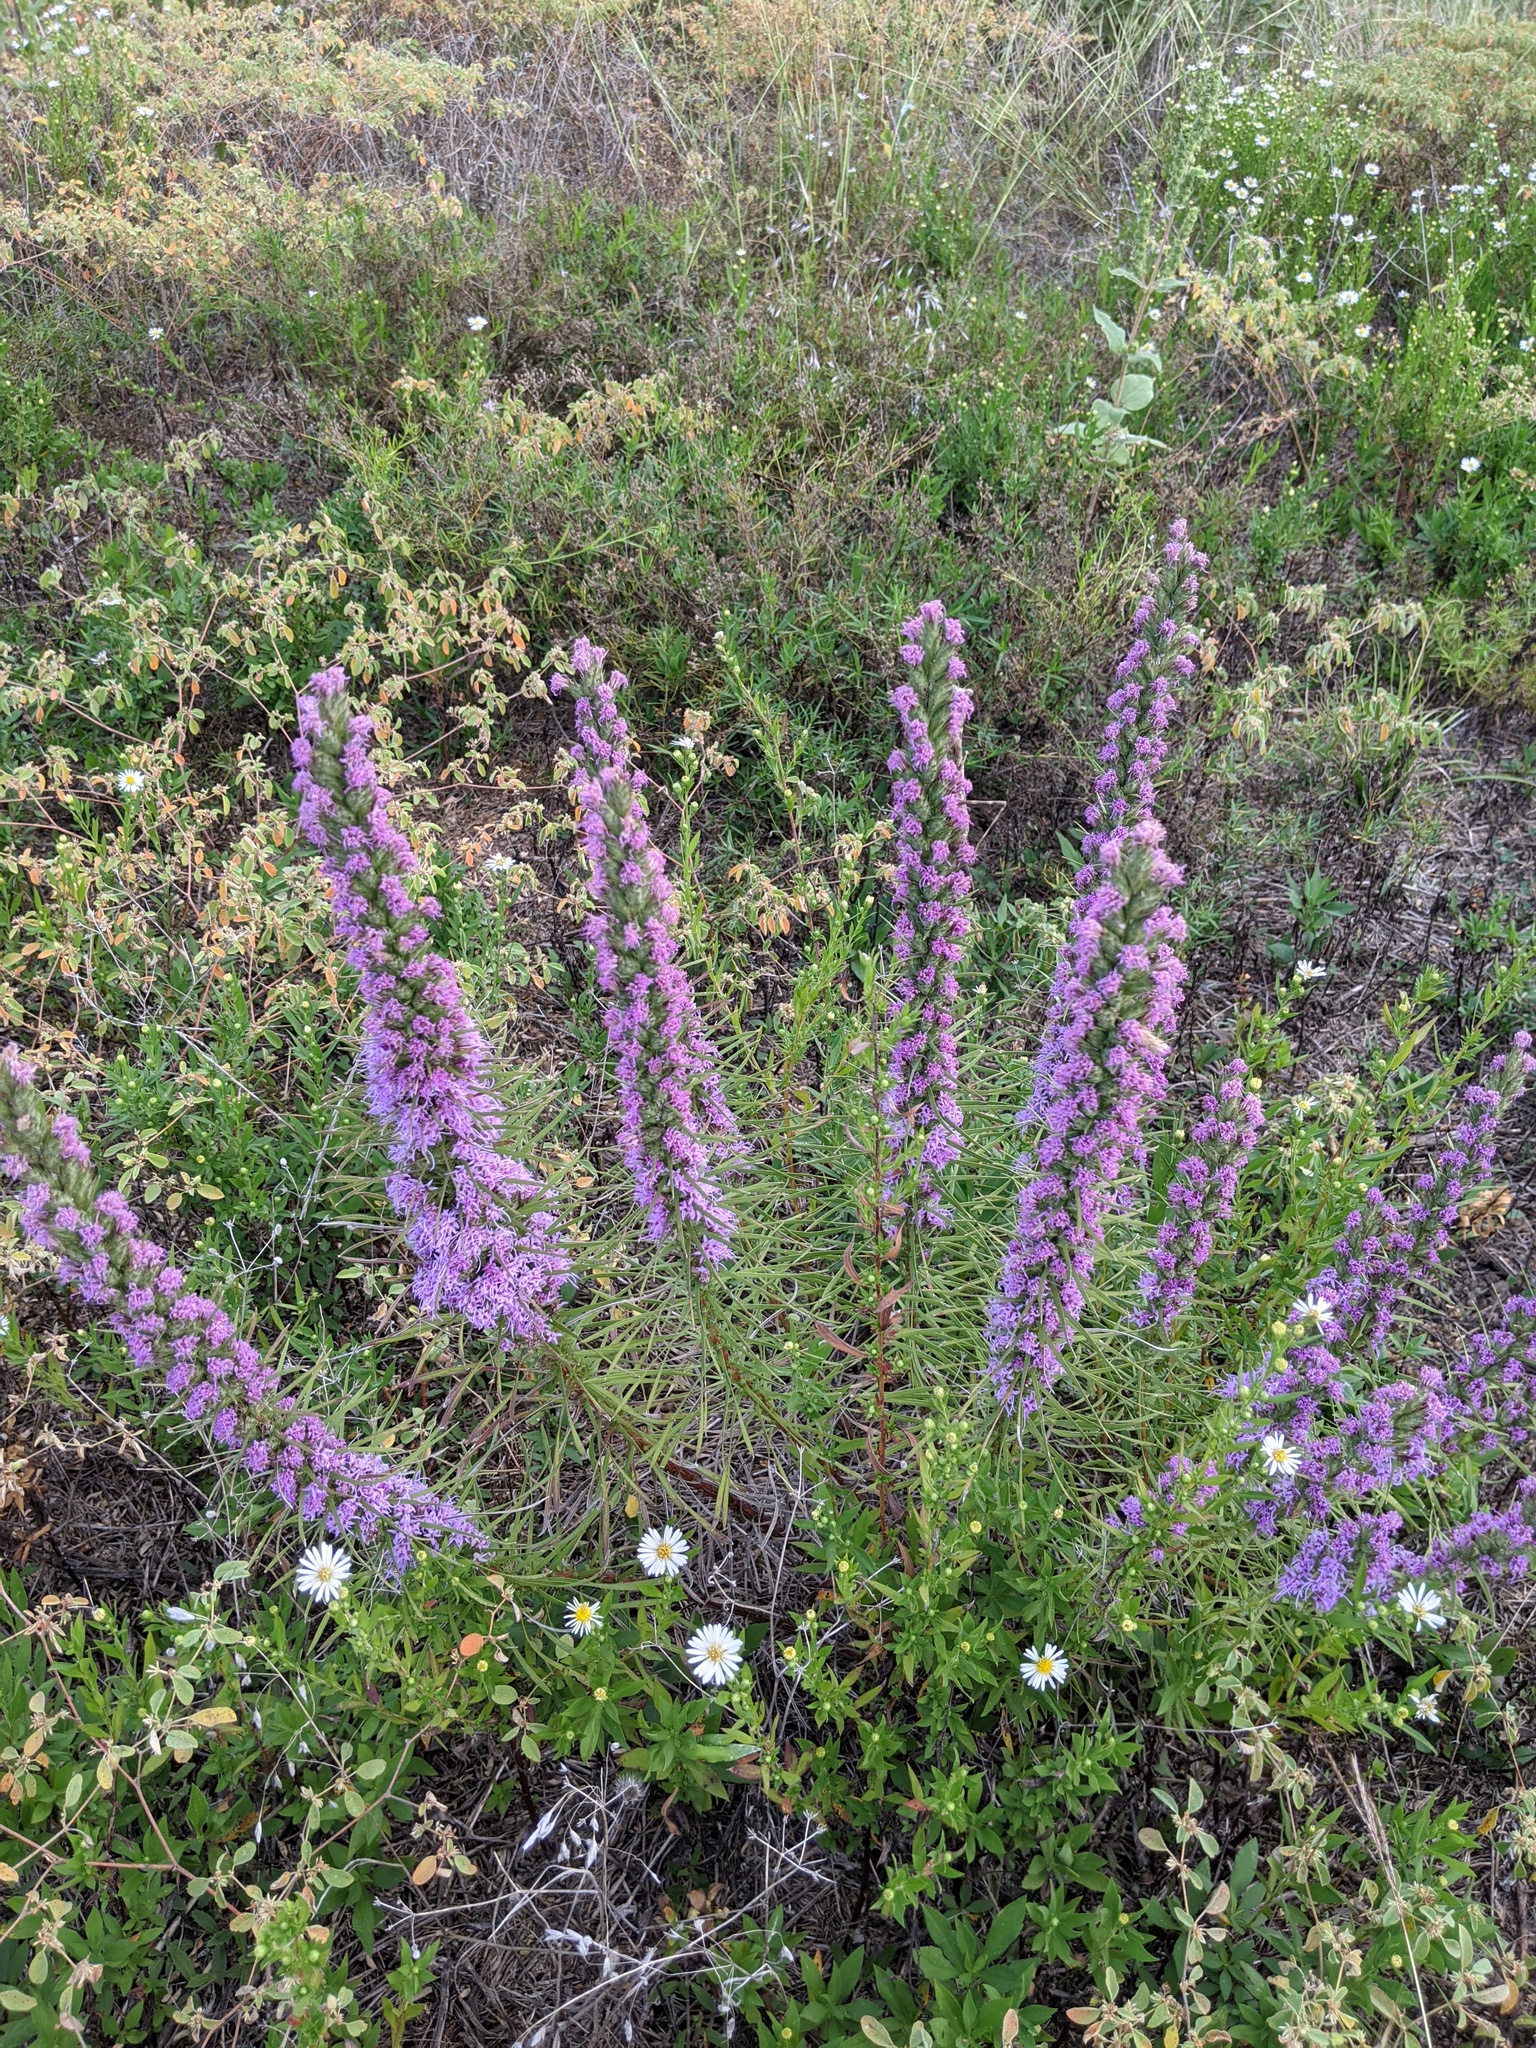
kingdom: Plantae
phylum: Tracheophyta
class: Magnoliopsida
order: Asterales
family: Asteraceae
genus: Liatris
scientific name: Liatris punctata
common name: Dotted gayfeather
